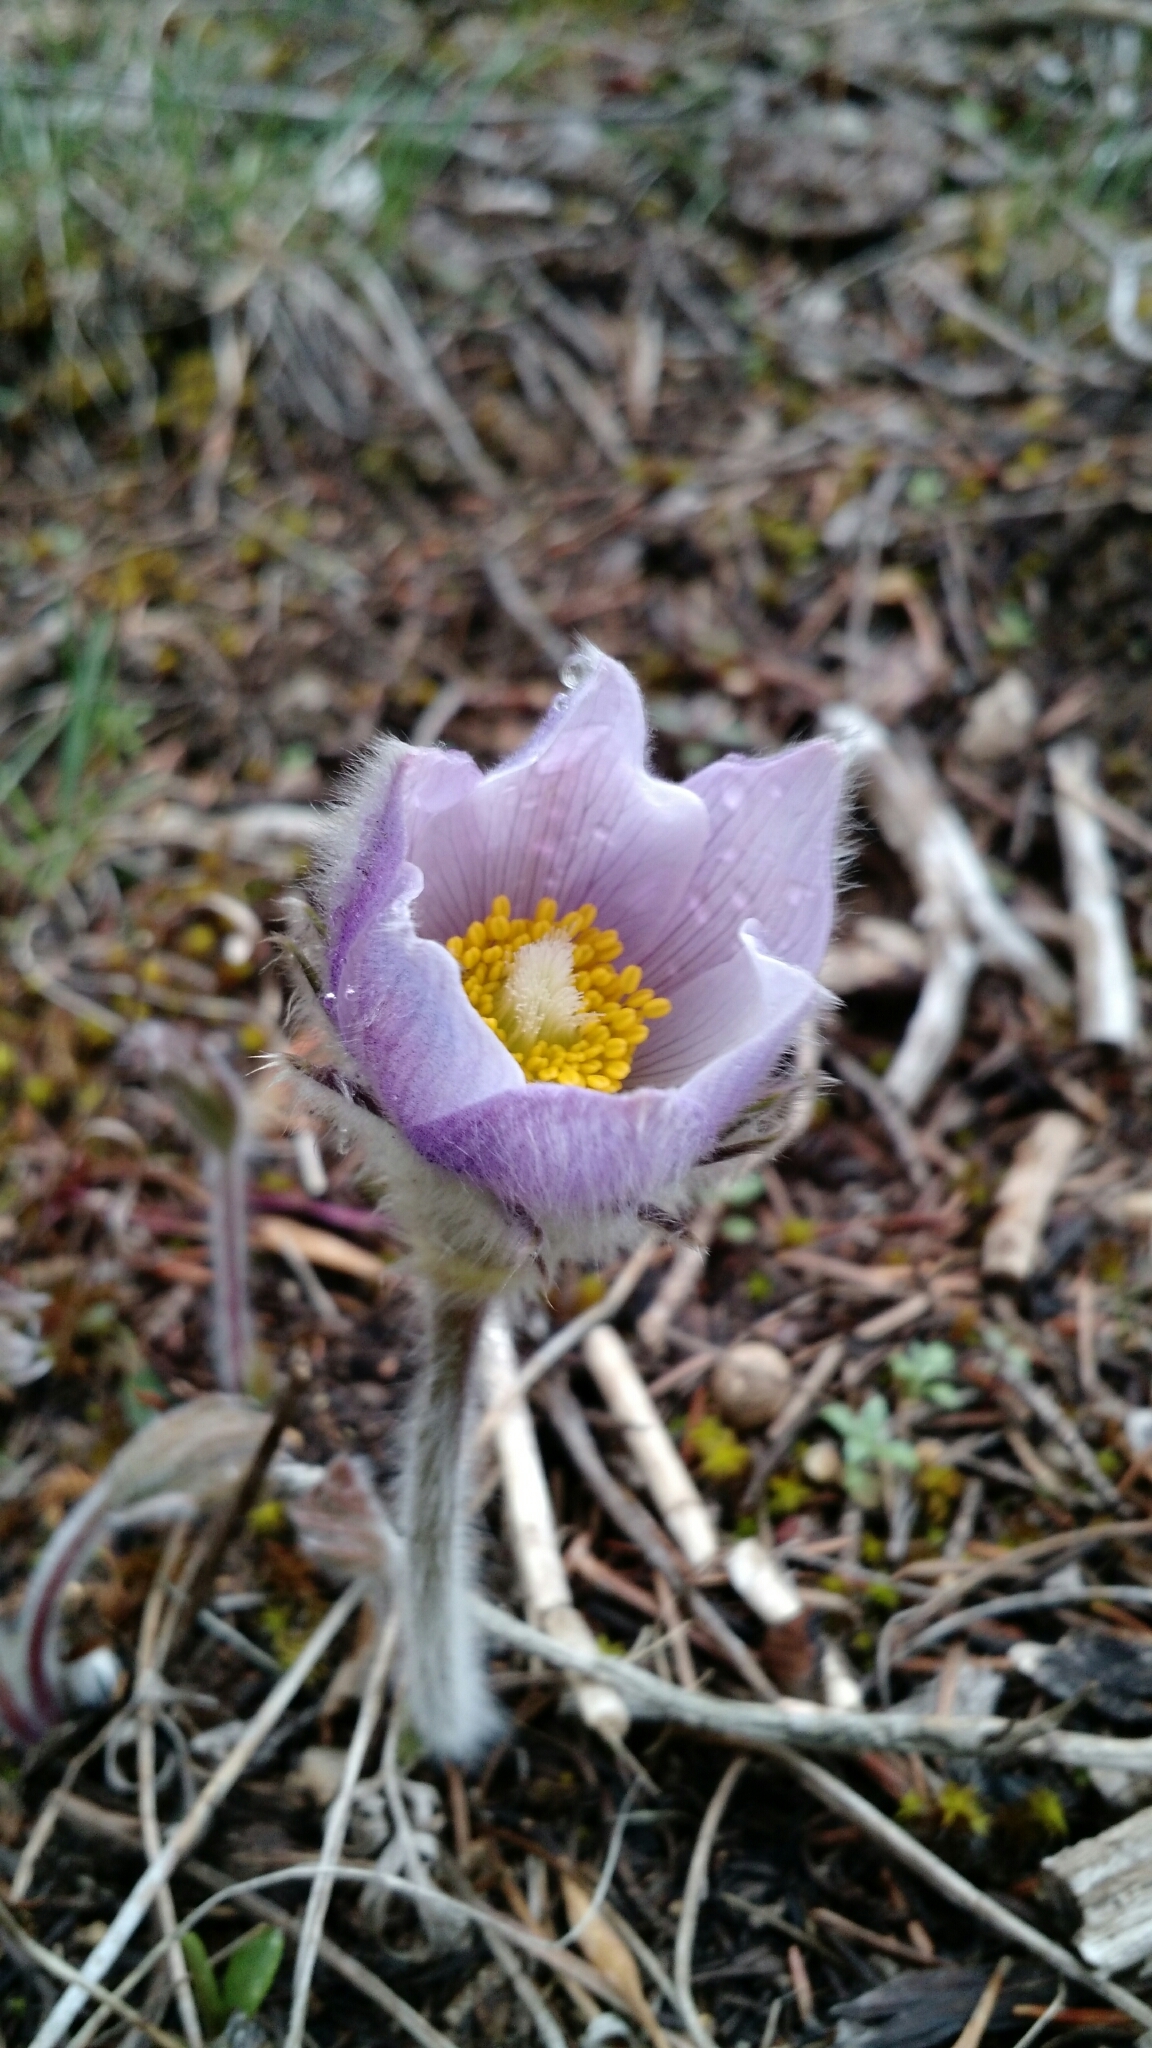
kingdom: Plantae
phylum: Tracheophyta
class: Magnoliopsida
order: Ranunculales
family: Ranunculaceae
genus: Pulsatilla
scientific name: Pulsatilla nuttalliana
